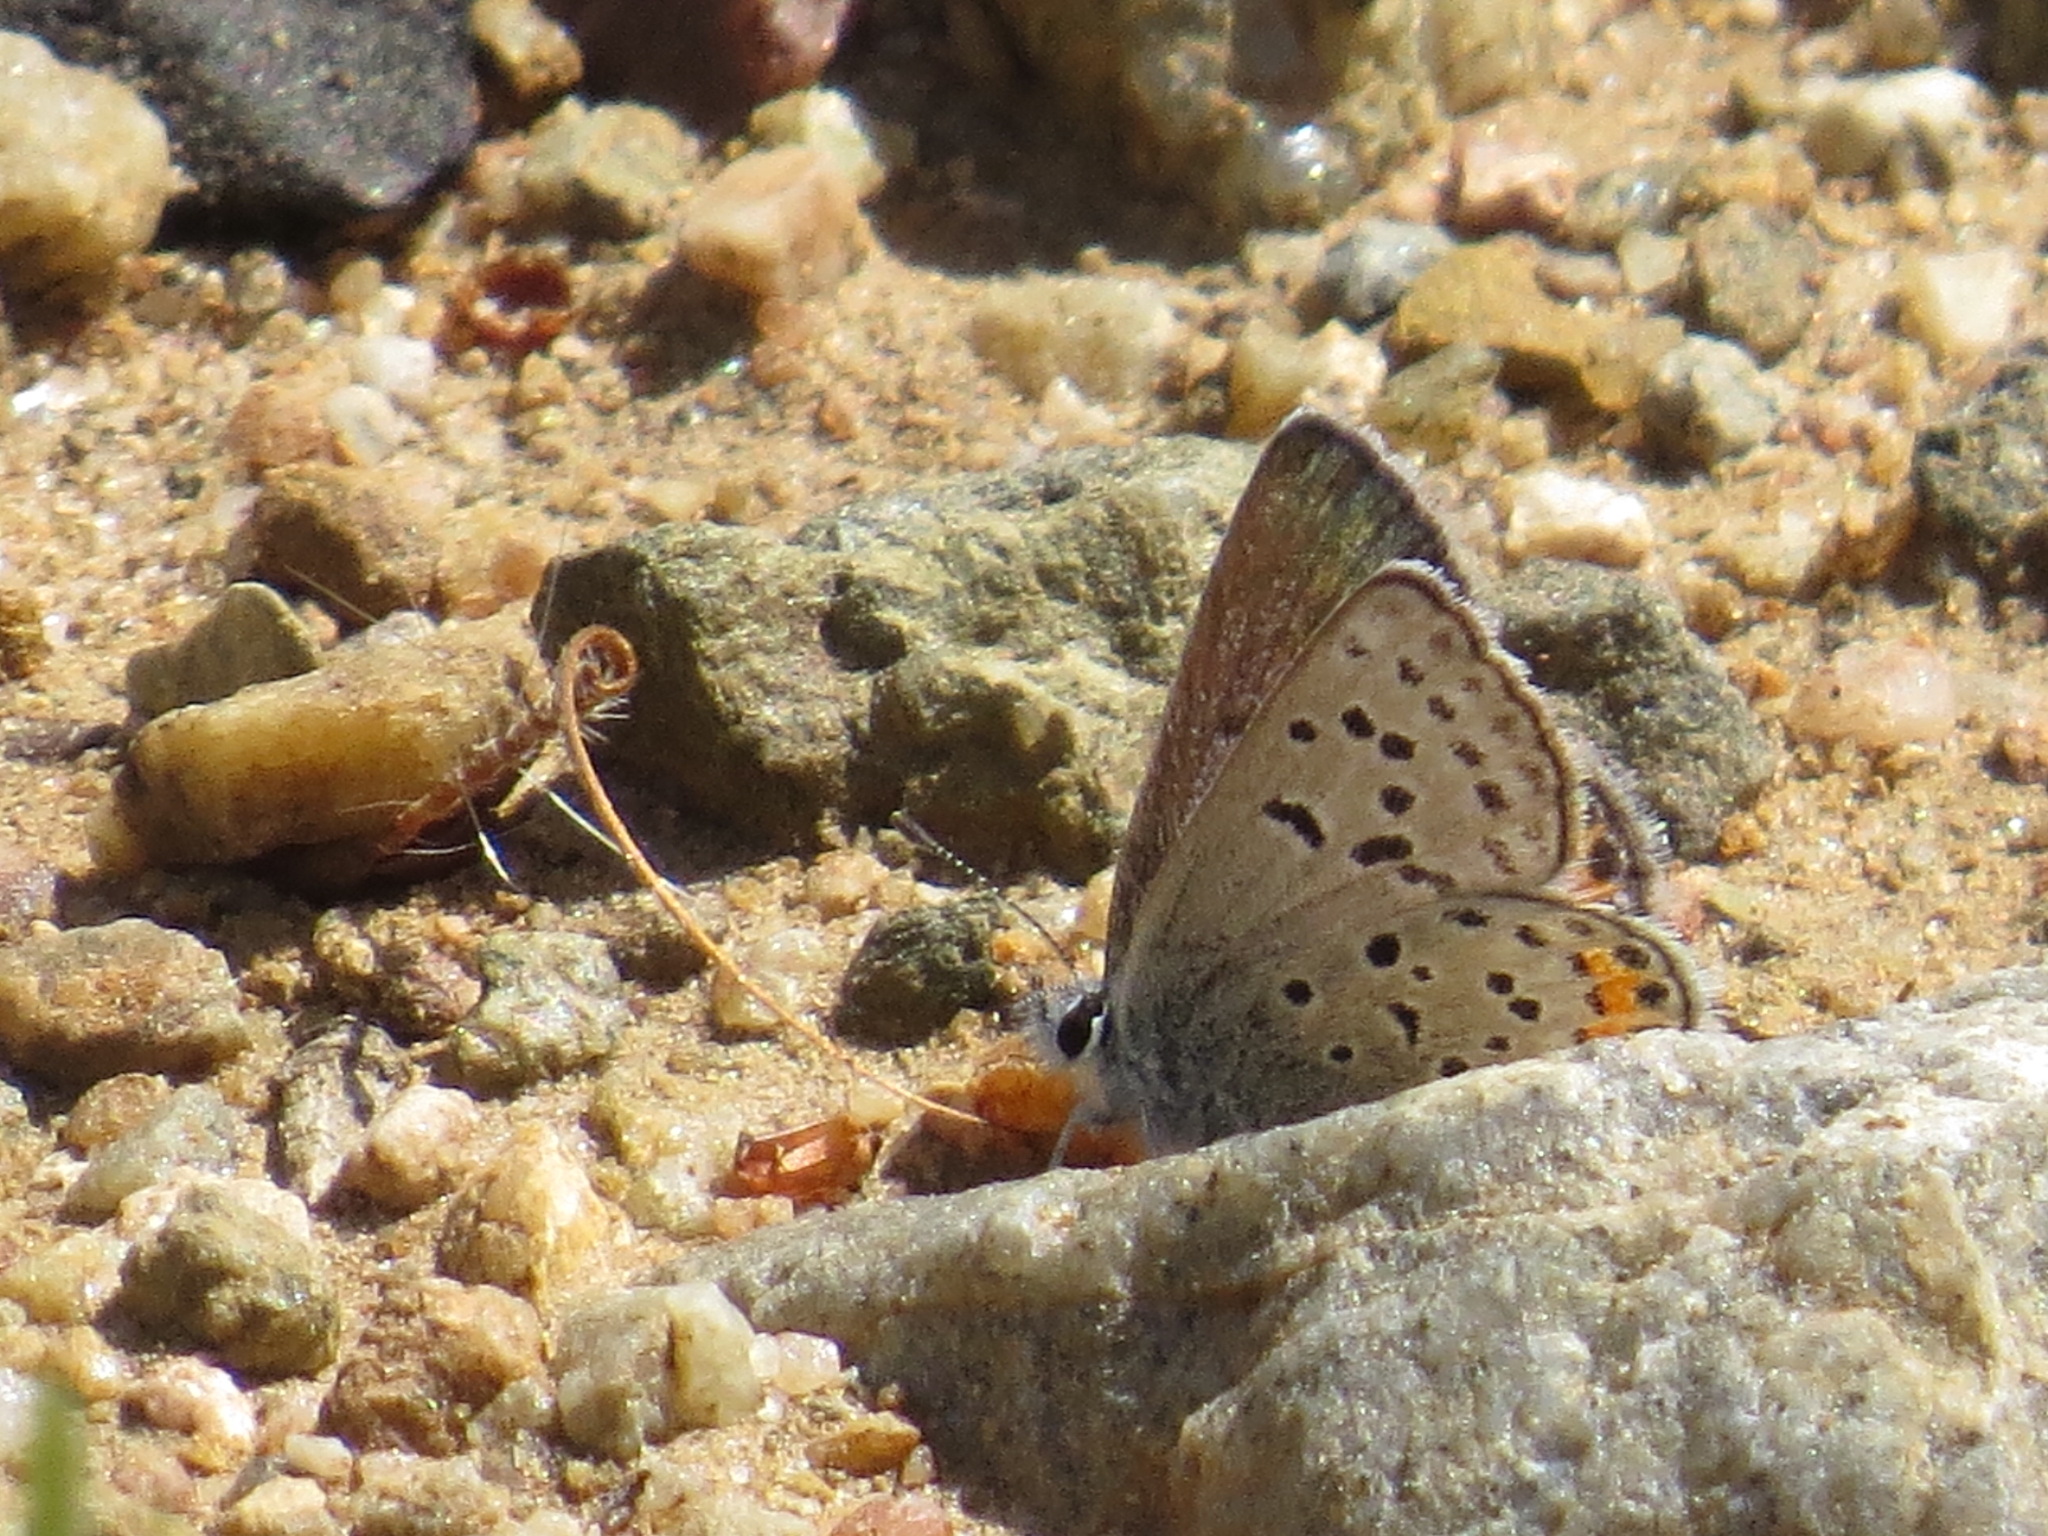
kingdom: Animalia
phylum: Arthropoda
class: Insecta
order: Lepidoptera
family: Lycaenidae
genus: Icaricia
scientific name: Icaricia acmon
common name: Acmon blue
